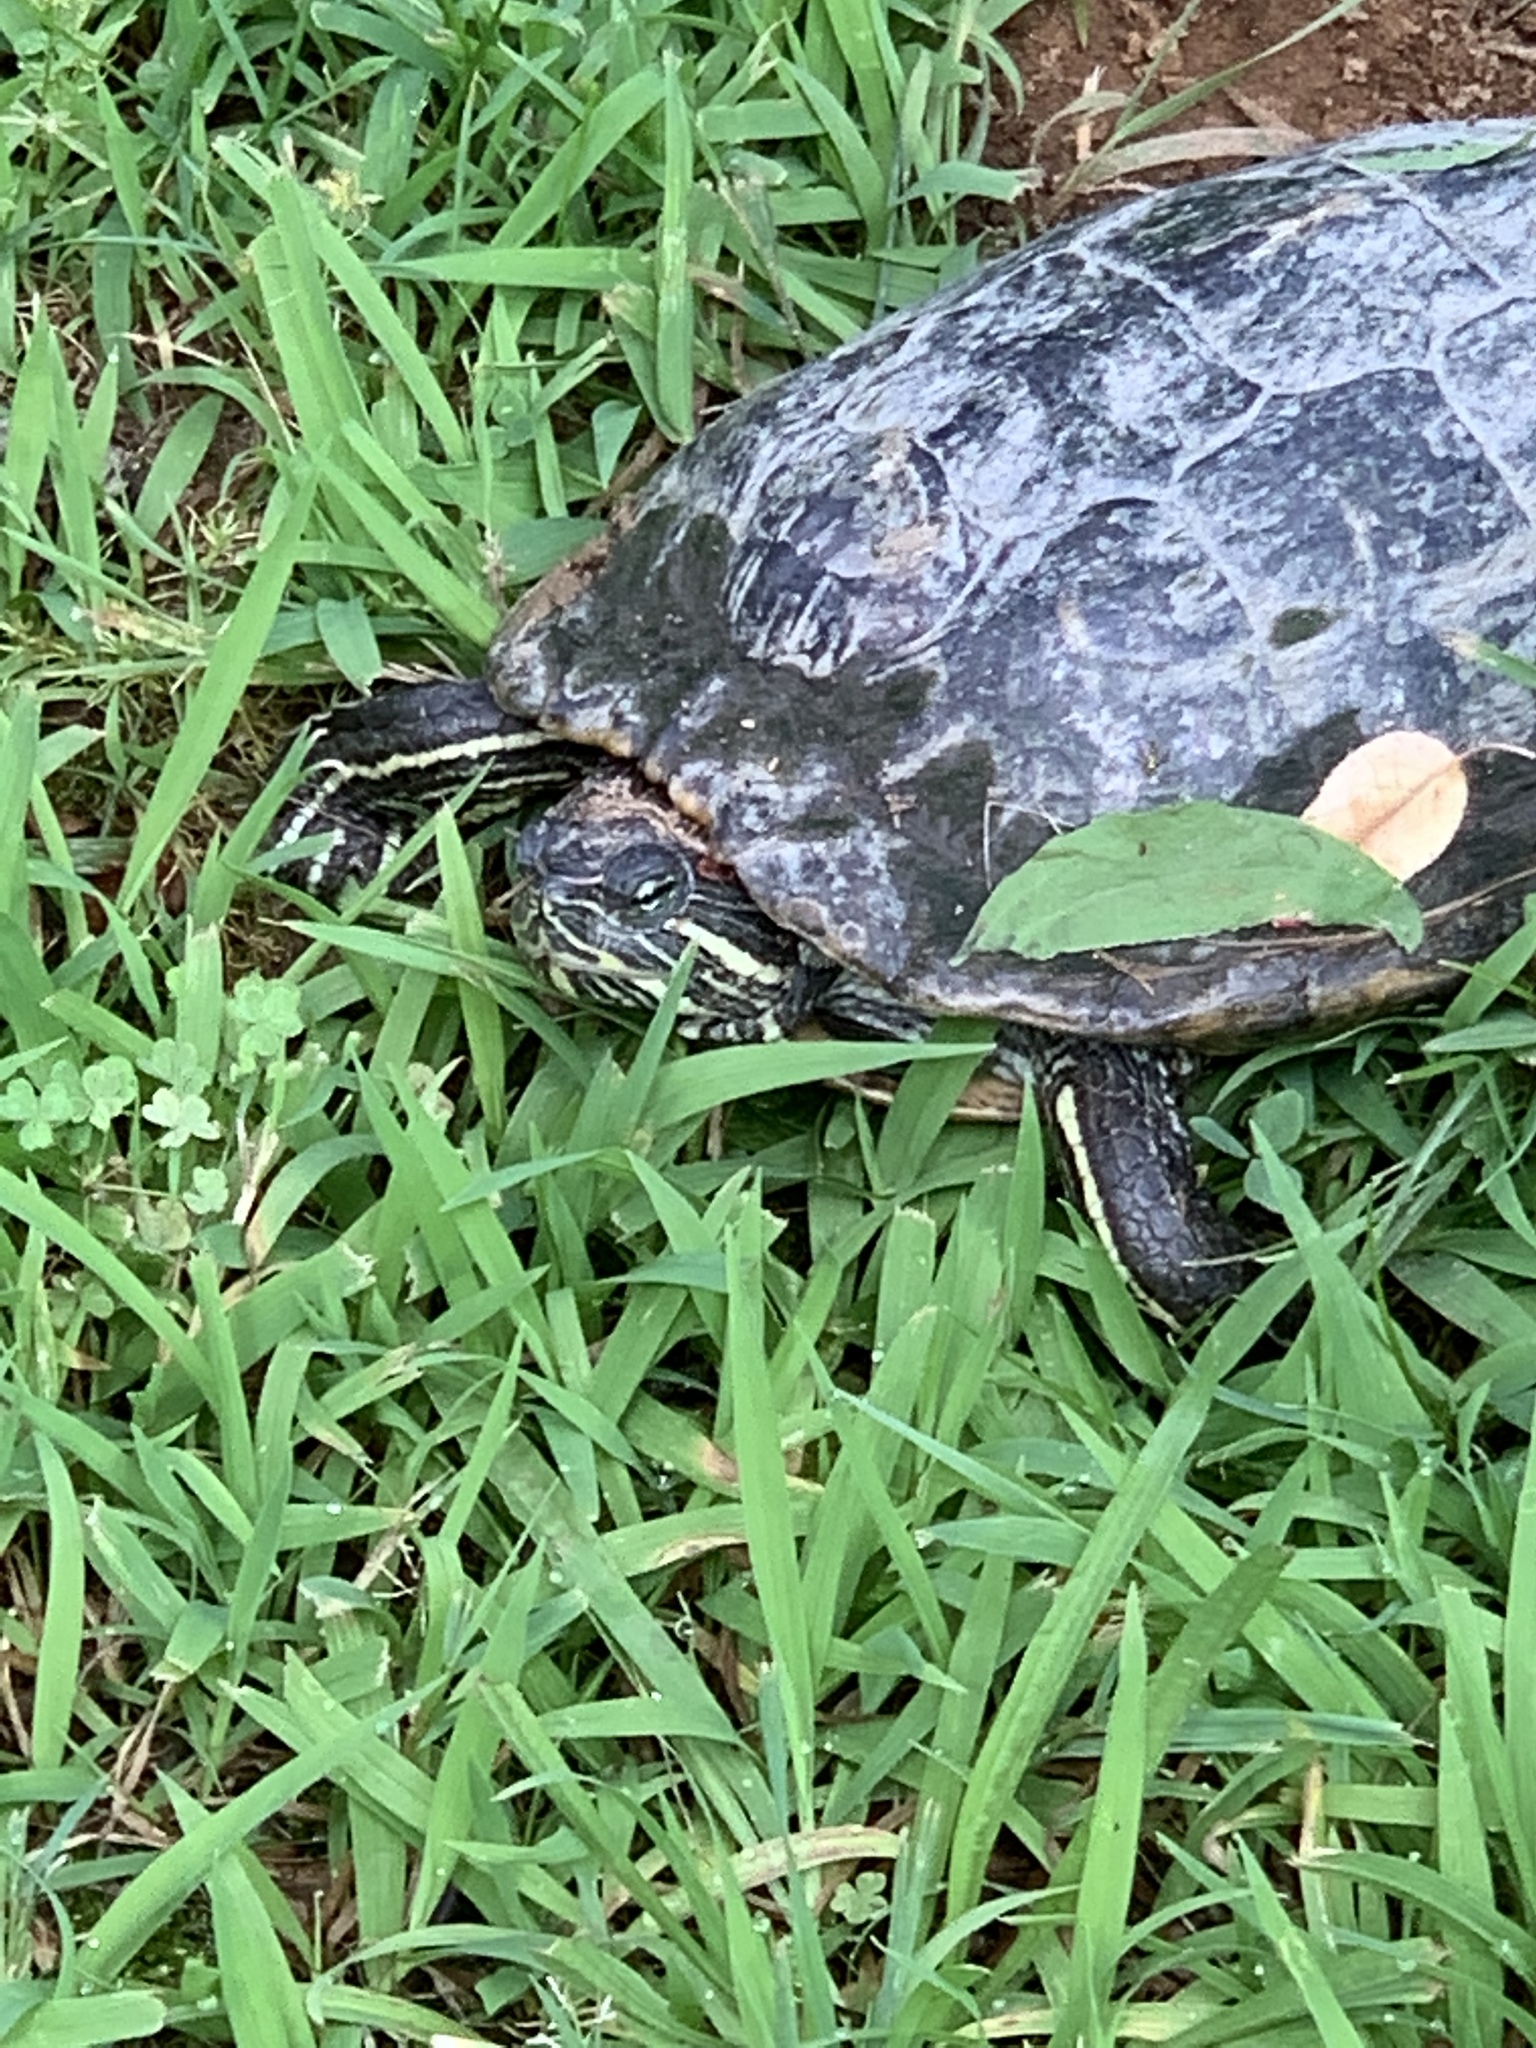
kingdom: Animalia
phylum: Chordata
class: Testudines
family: Emydidae
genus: Trachemys
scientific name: Trachemys scripta
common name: Slider
